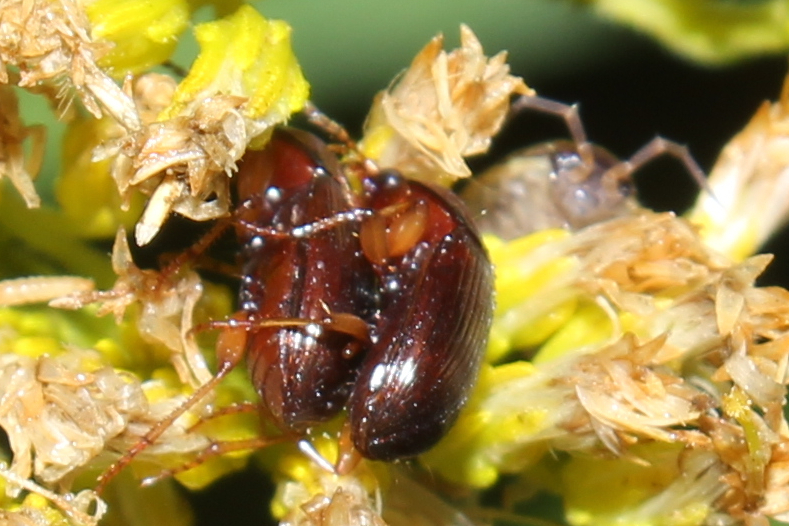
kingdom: Animalia
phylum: Arthropoda
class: Insecta
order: Coleoptera
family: Carabidae
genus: Amara
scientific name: Amara rubrica
